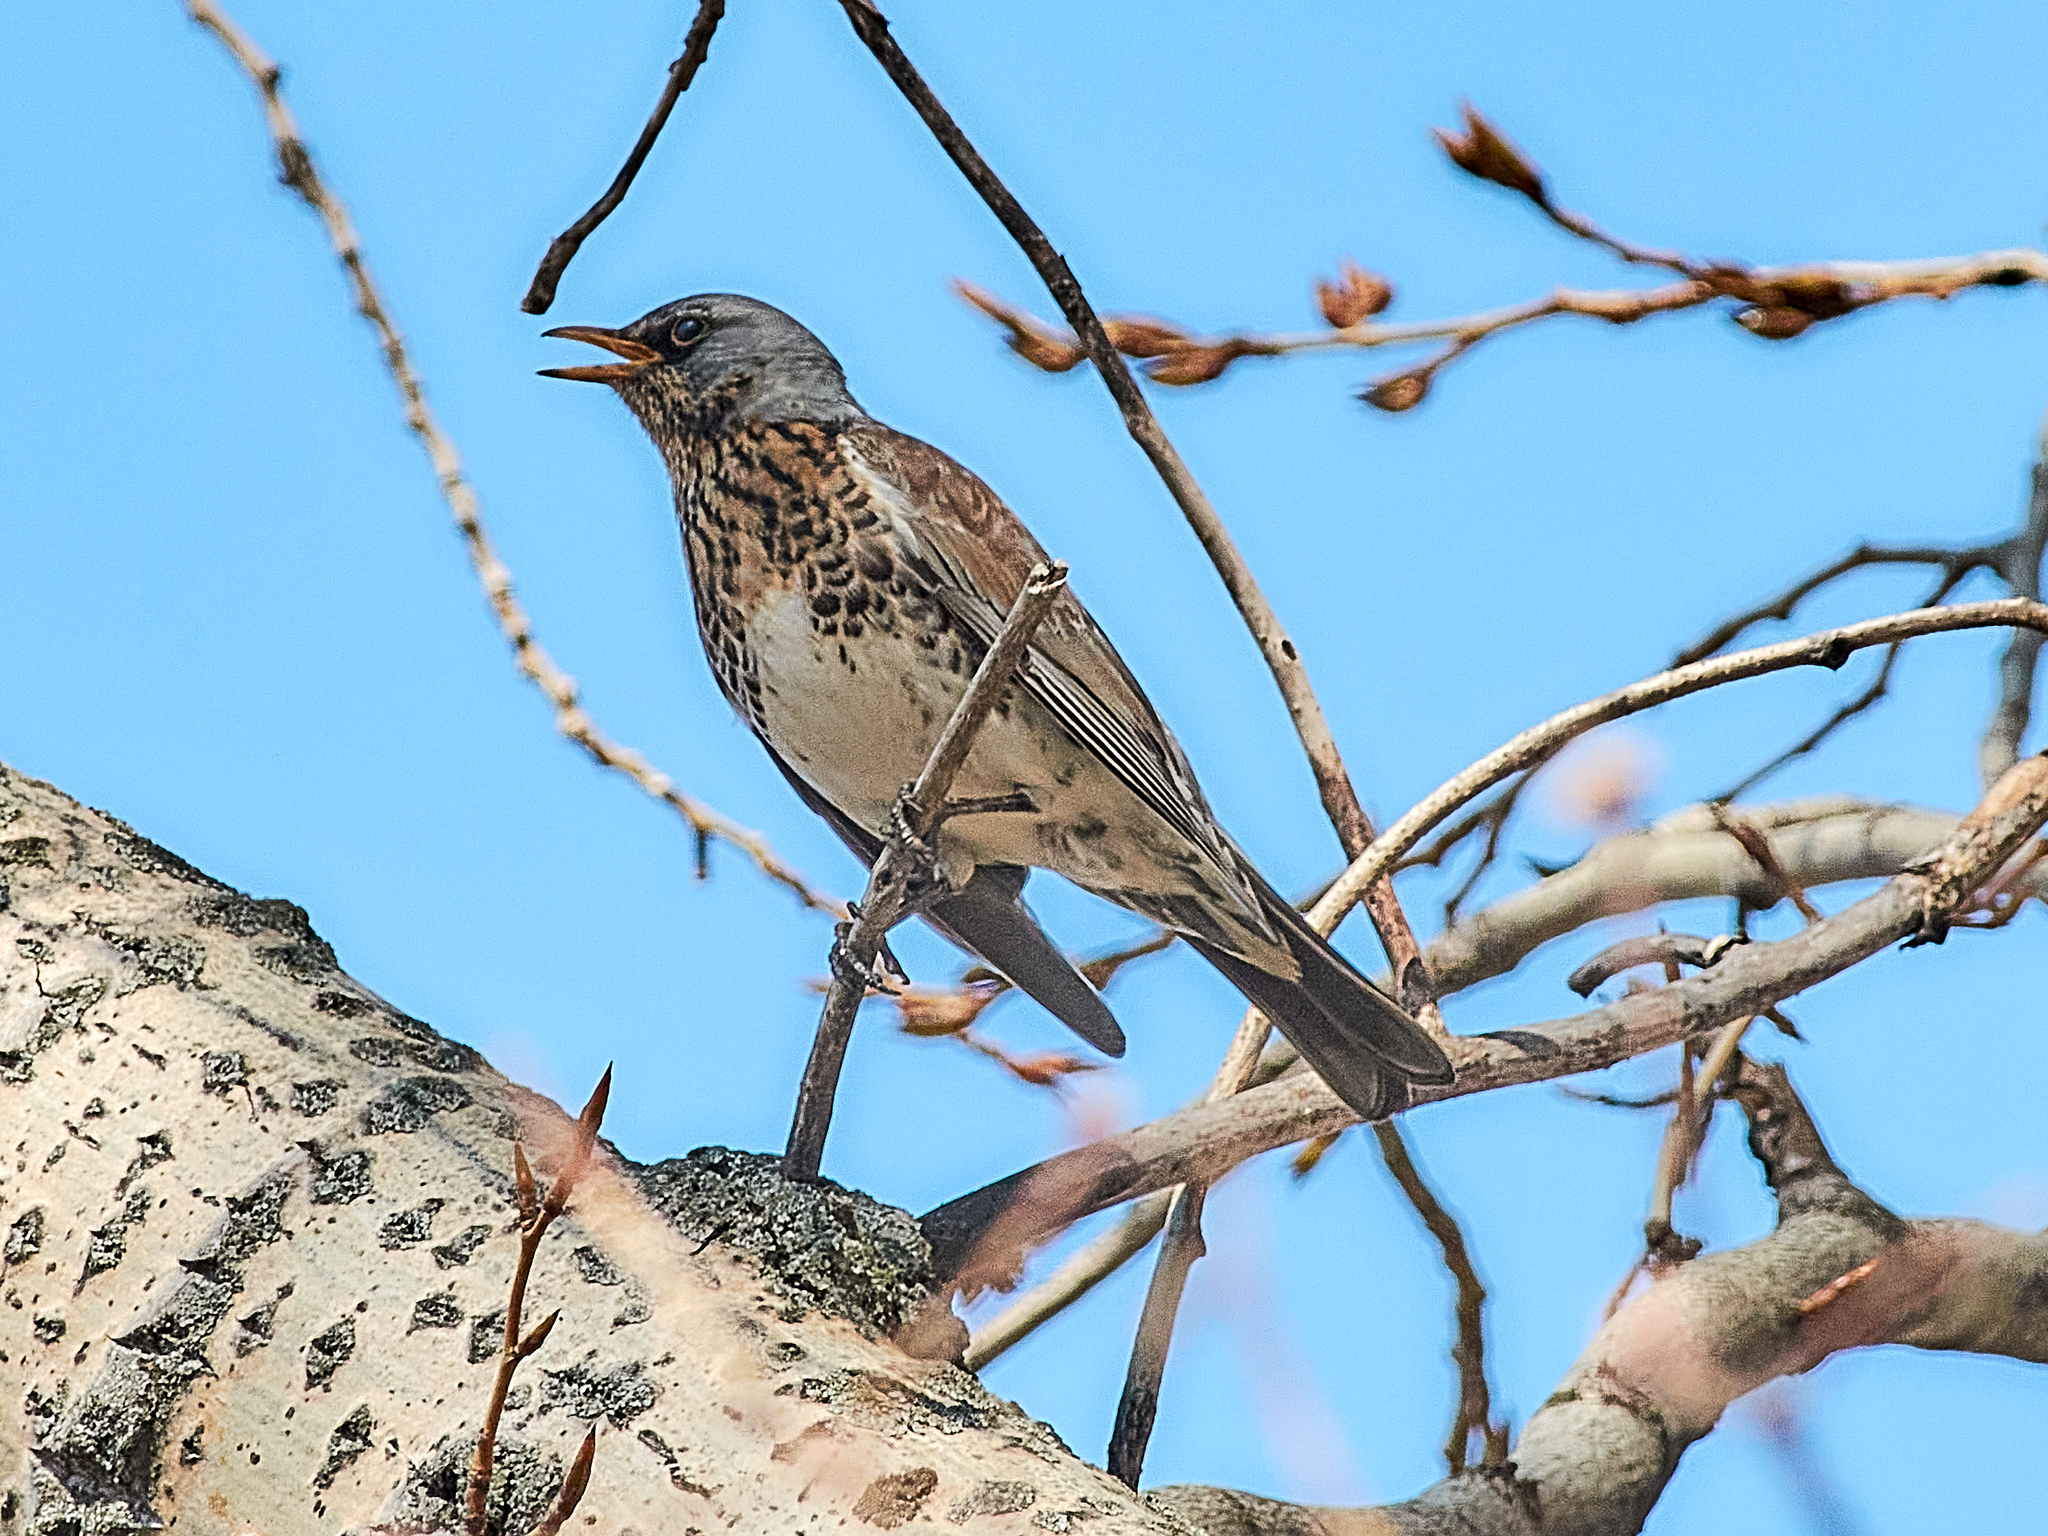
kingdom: Animalia
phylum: Chordata
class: Aves
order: Passeriformes
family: Turdidae
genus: Turdus
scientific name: Turdus pilaris
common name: Fieldfare
